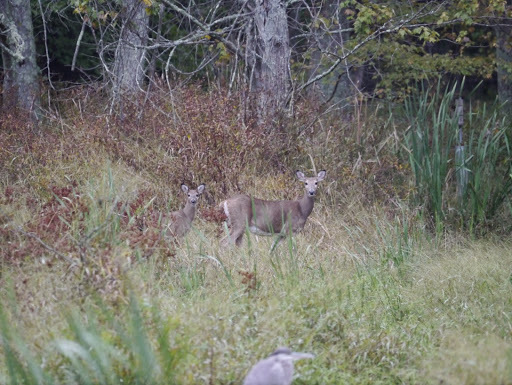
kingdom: Animalia
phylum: Chordata
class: Mammalia
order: Artiodactyla
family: Cervidae
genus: Odocoileus
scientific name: Odocoileus virginianus
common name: White-tailed deer
